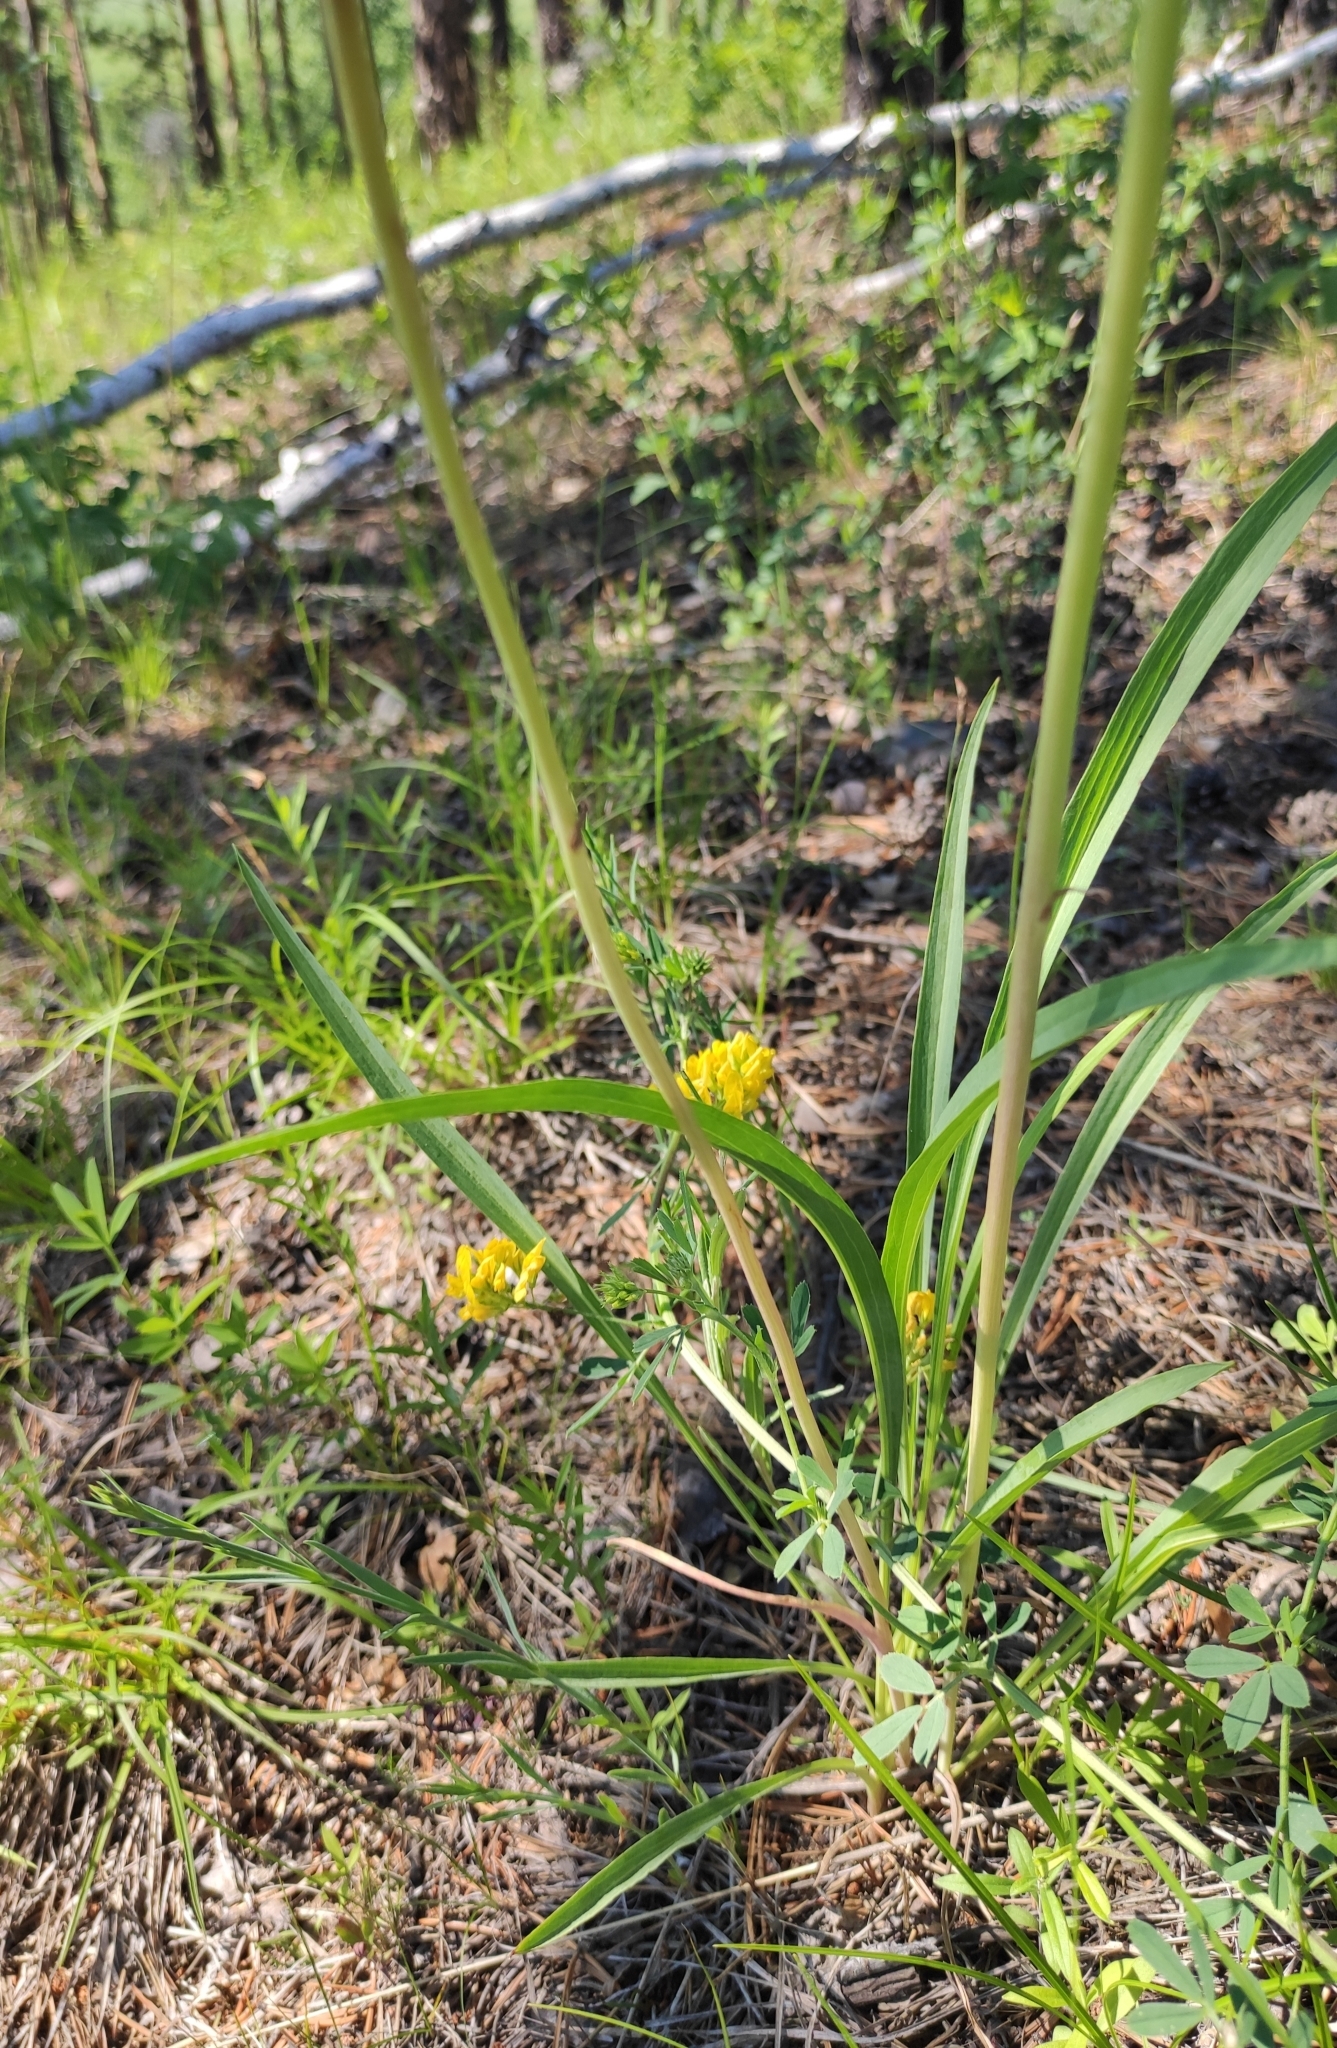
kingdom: Plantae
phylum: Tracheophyta
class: Magnoliopsida
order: Asterales
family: Asteraceae
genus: Scorzonera
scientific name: Scorzonera radiata
